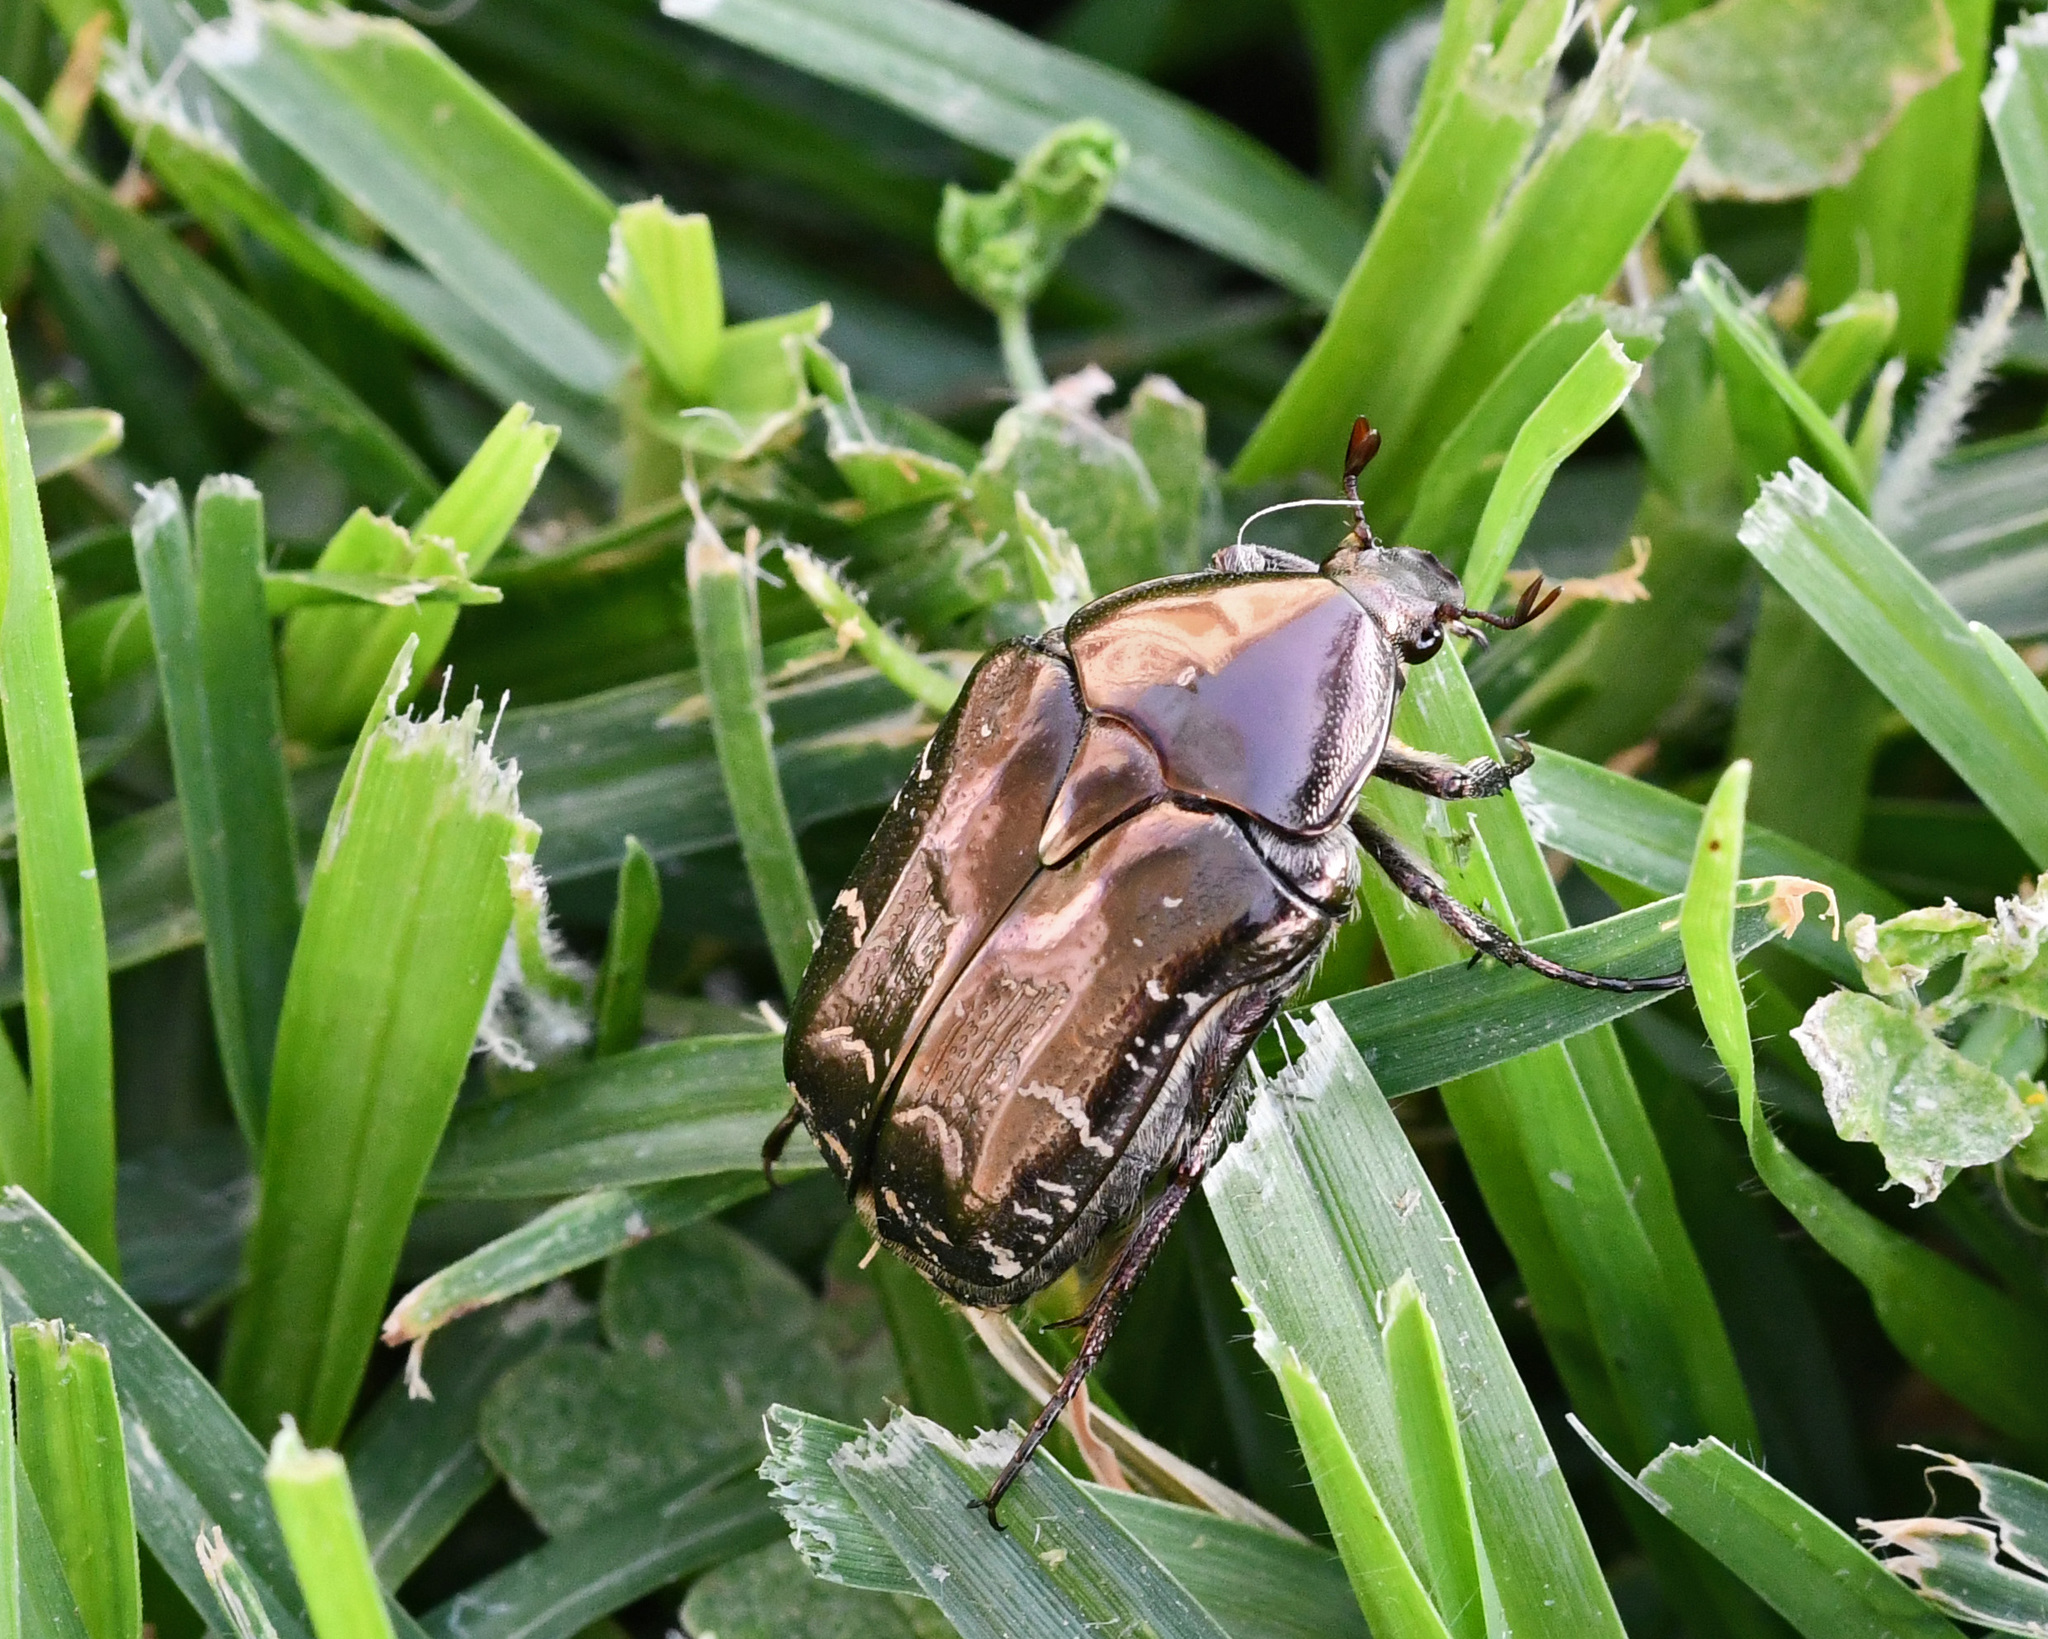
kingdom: Animalia
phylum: Arthropoda
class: Insecta
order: Coleoptera
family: Scarabaeidae
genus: Protaetia
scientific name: Protaetia ikonomovi
